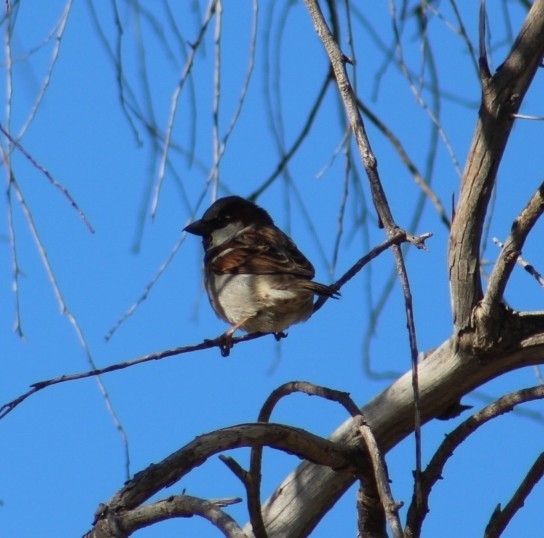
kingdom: Animalia
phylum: Chordata
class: Aves
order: Passeriformes
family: Passeridae
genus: Passer
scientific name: Passer domesticus
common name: House sparrow
